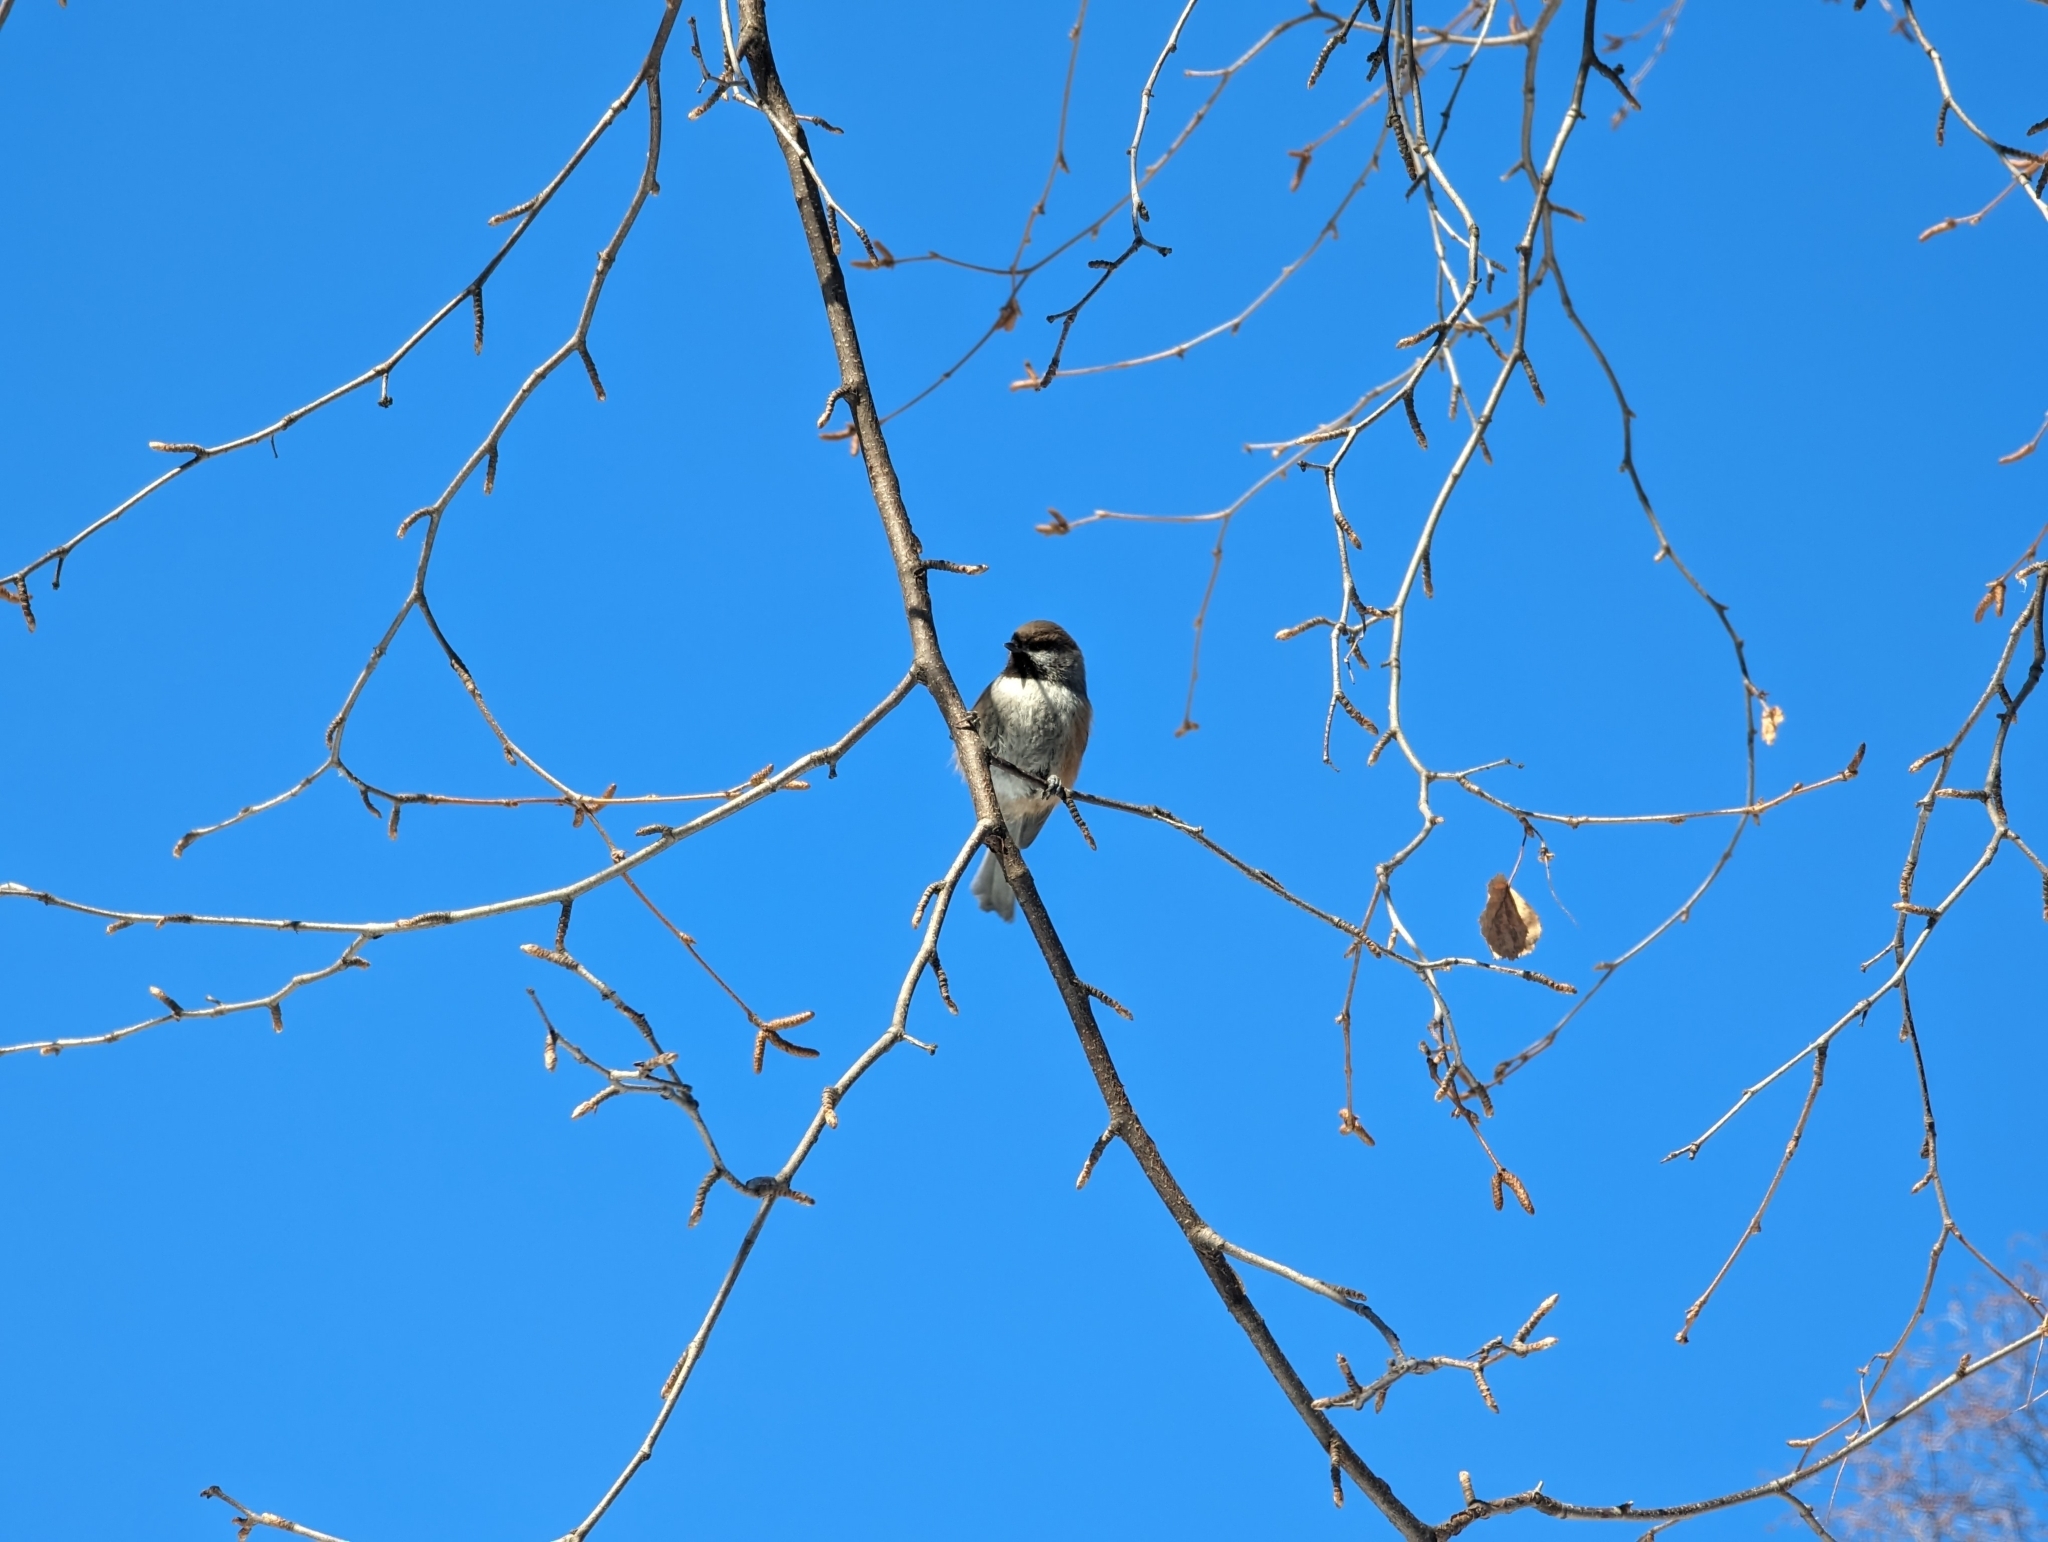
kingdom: Animalia
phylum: Chordata
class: Aves
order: Passeriformes
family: Paridae
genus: Poecile
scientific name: Poecile hudsonicus
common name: Boreal chickadee
